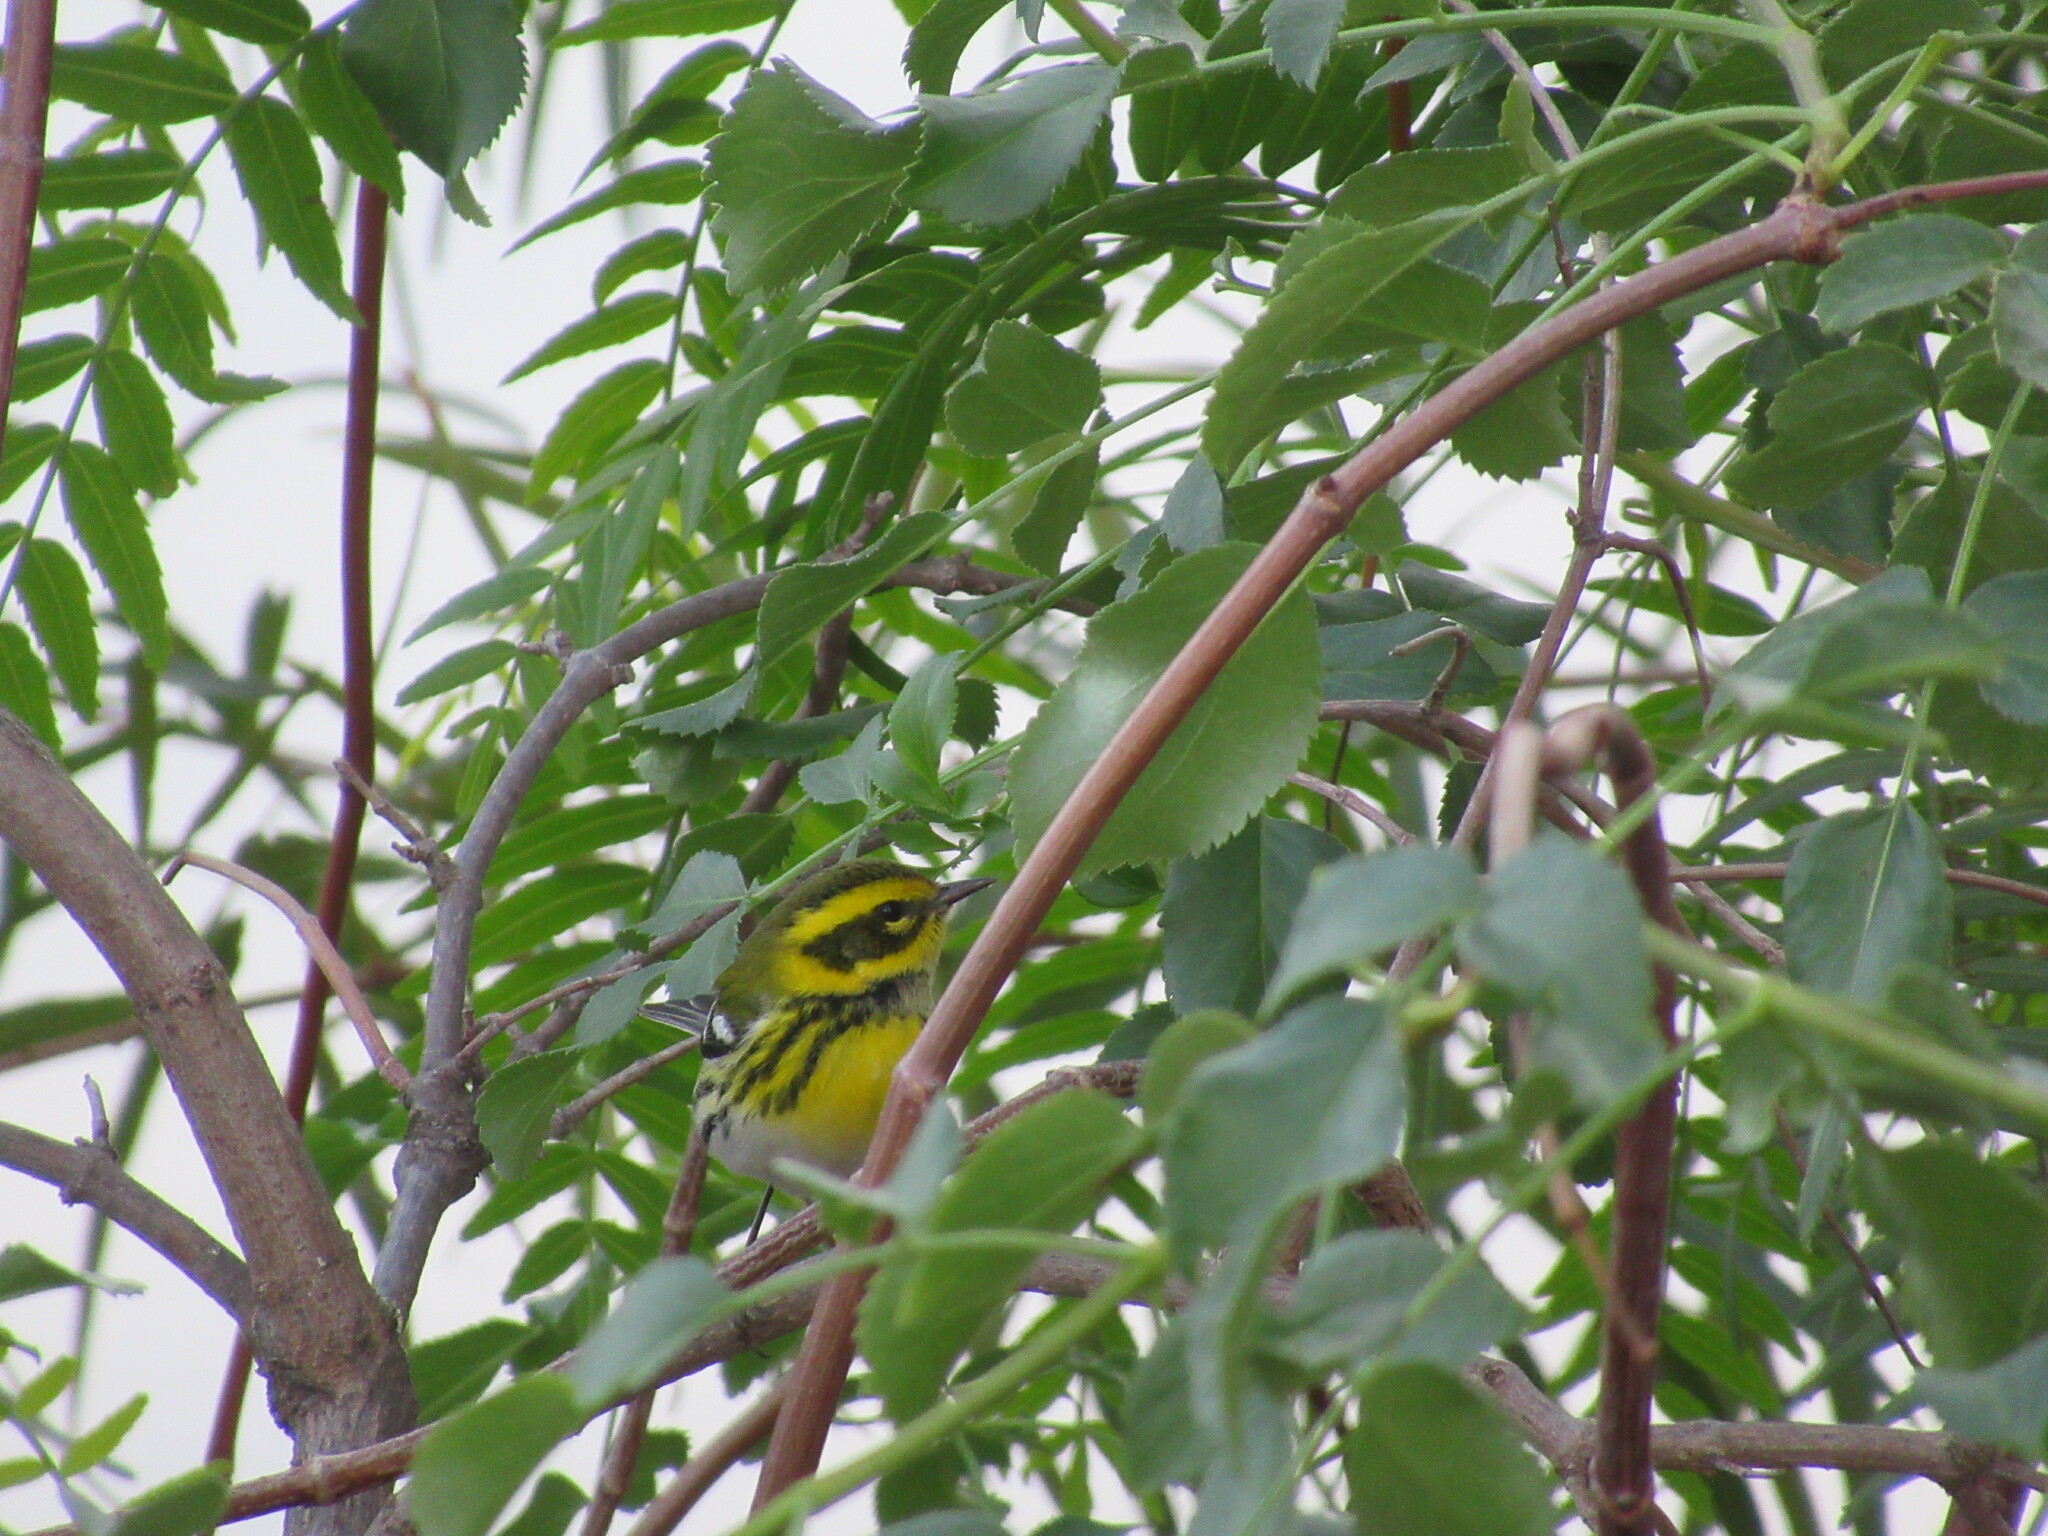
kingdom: Animalia
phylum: Chordata
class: Aves
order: Passeriformes
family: Parulidae
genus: Setophaga
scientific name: Setophaga townsendi
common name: Townsend's warbler
